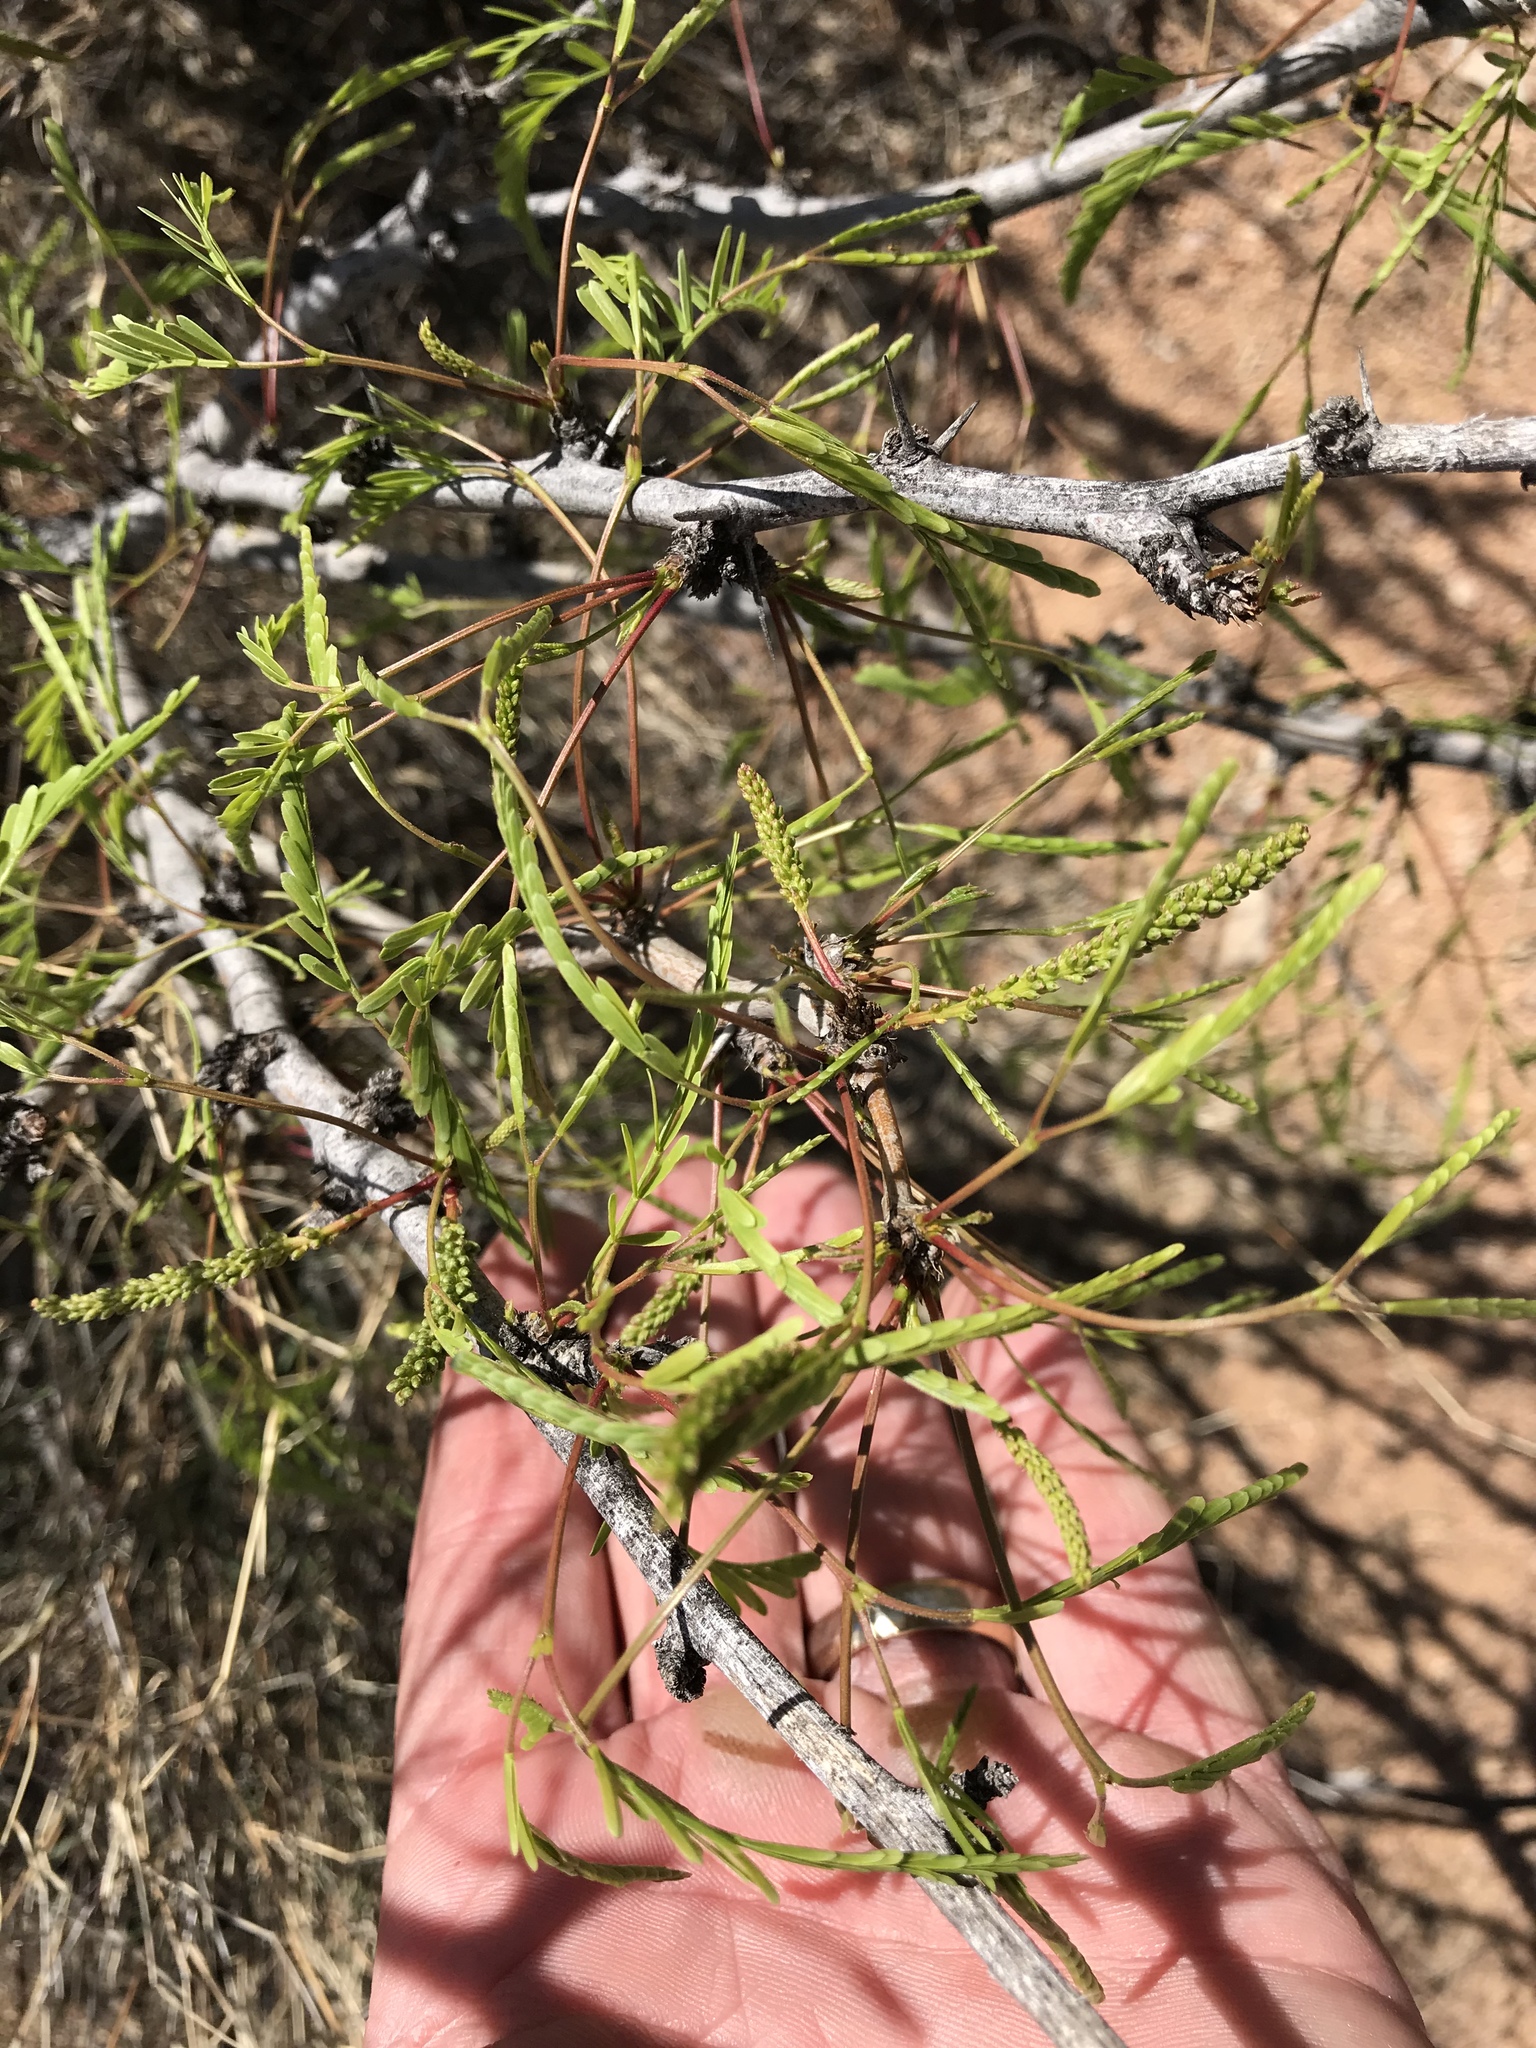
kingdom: Plantae
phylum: Tracheophyta
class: Magnoliopsida
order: Fabales
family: Fabaceae
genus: Prosopis
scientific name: Prosopis glandulosa
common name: Honey mesquite
